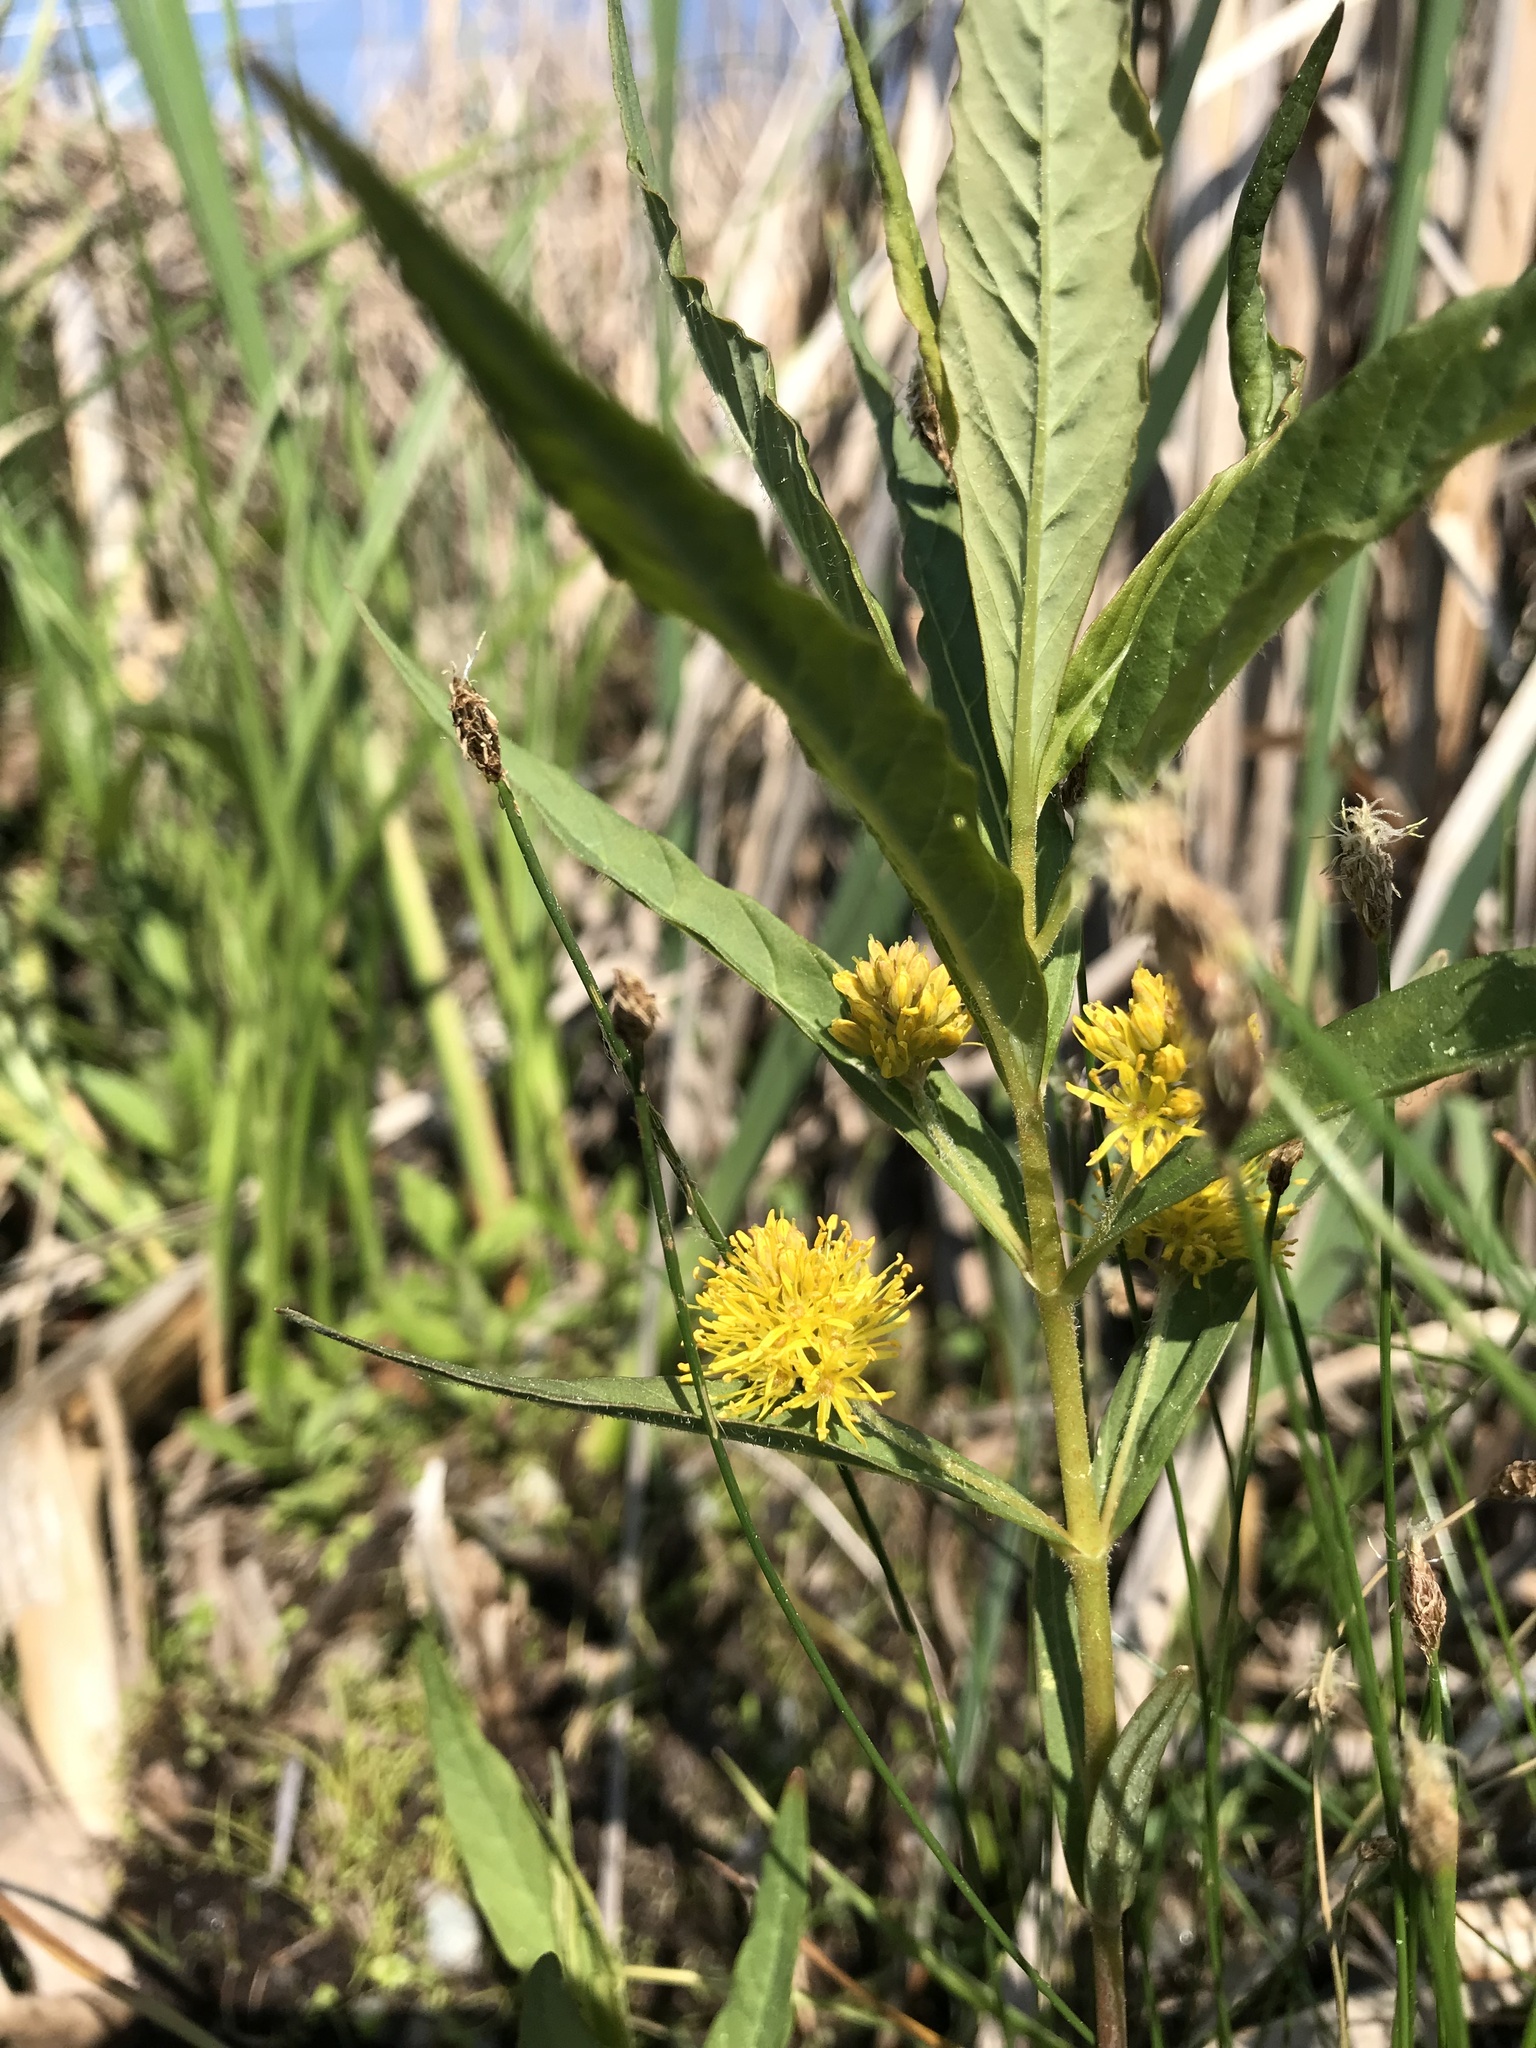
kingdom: Plantae
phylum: Tracheophyta
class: Magnoliopsida
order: Ericales
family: Primulaceae
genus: Lysimachia
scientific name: Lysimachia thyrsiflora
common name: Tufted loosestrife
